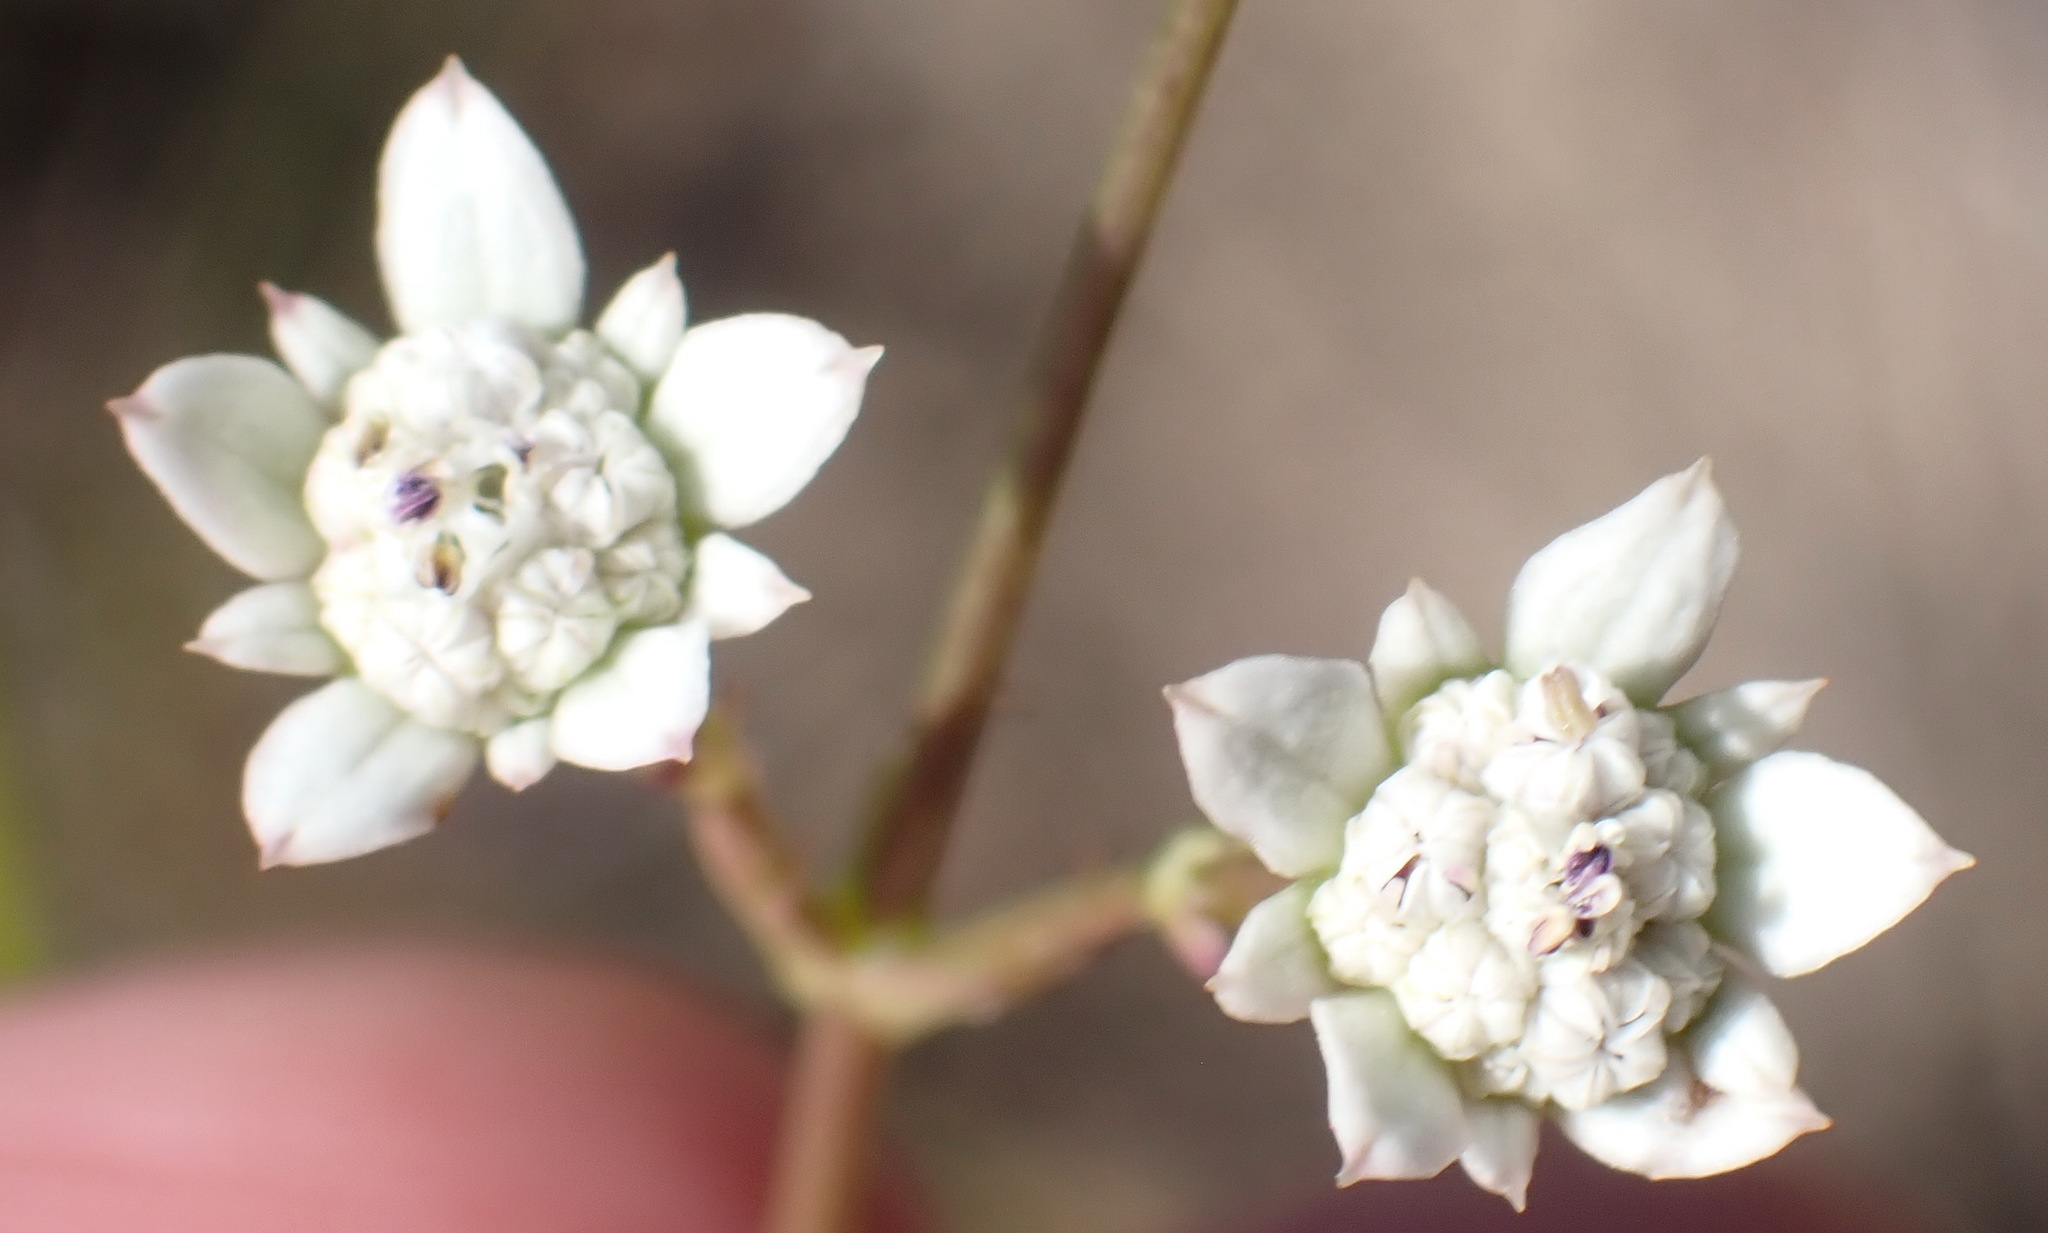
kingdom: Plantae
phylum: Tracheophyta
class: Magnoliopsida
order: Apiales
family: Apiaceae
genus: Alepidea
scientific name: Alepidea capensis
